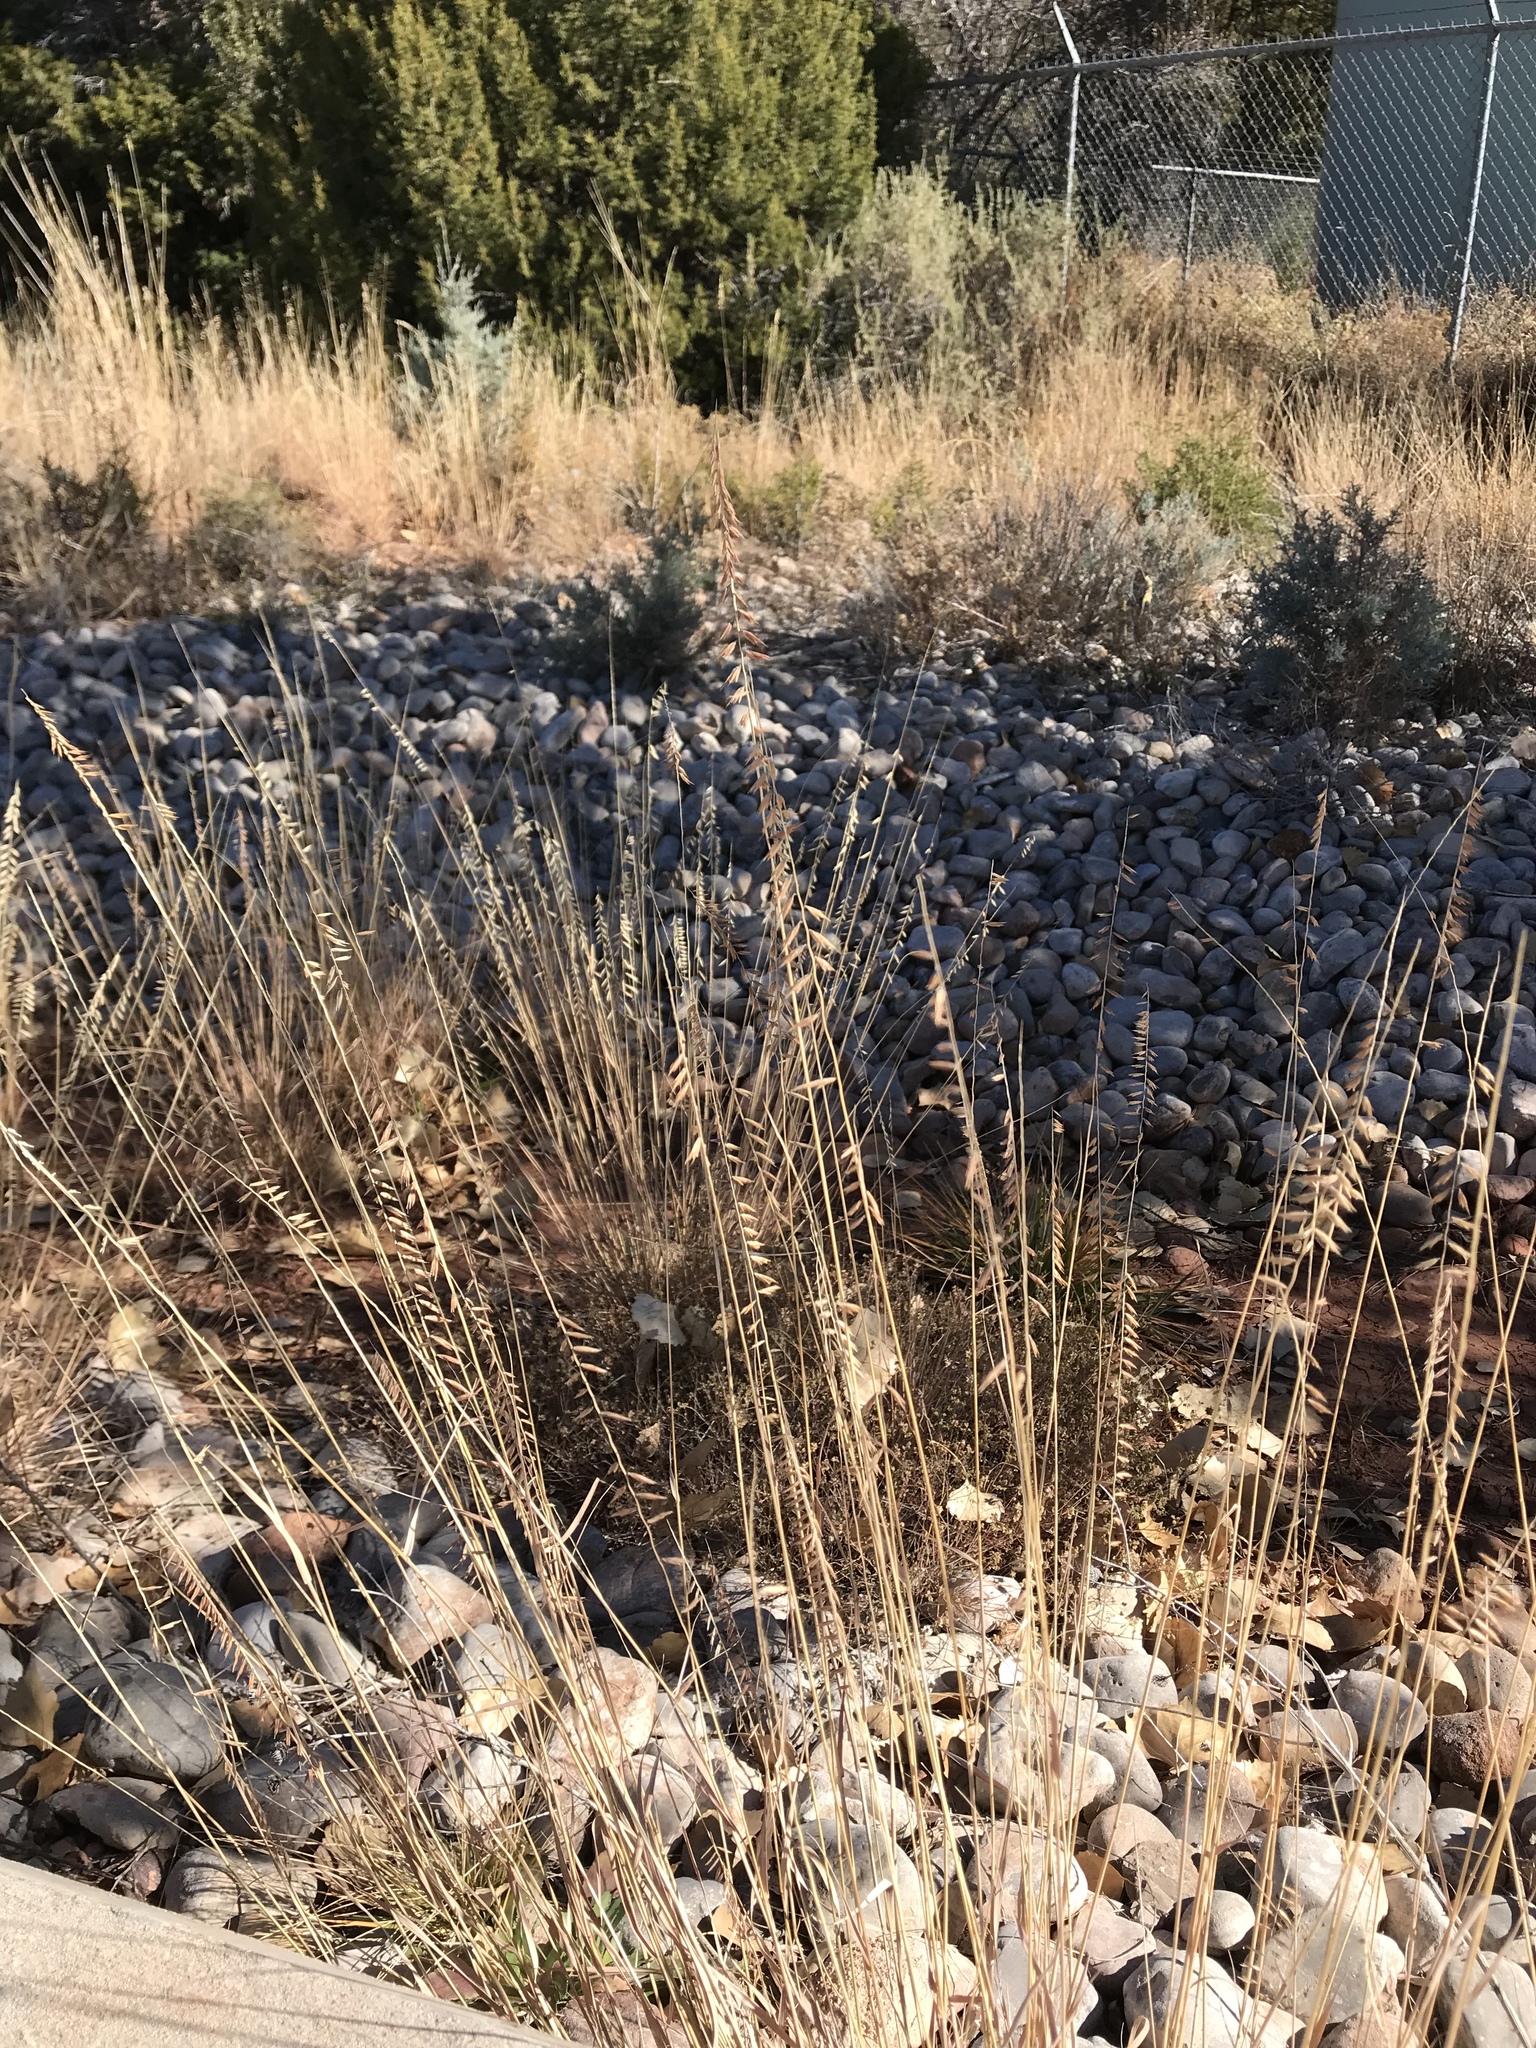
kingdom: Plantae
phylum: Tracheophyta
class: Liliopsida
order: Poales
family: Poaceae
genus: Bouteloua
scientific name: Bouteloua curtipendula
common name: Side-oats grama
